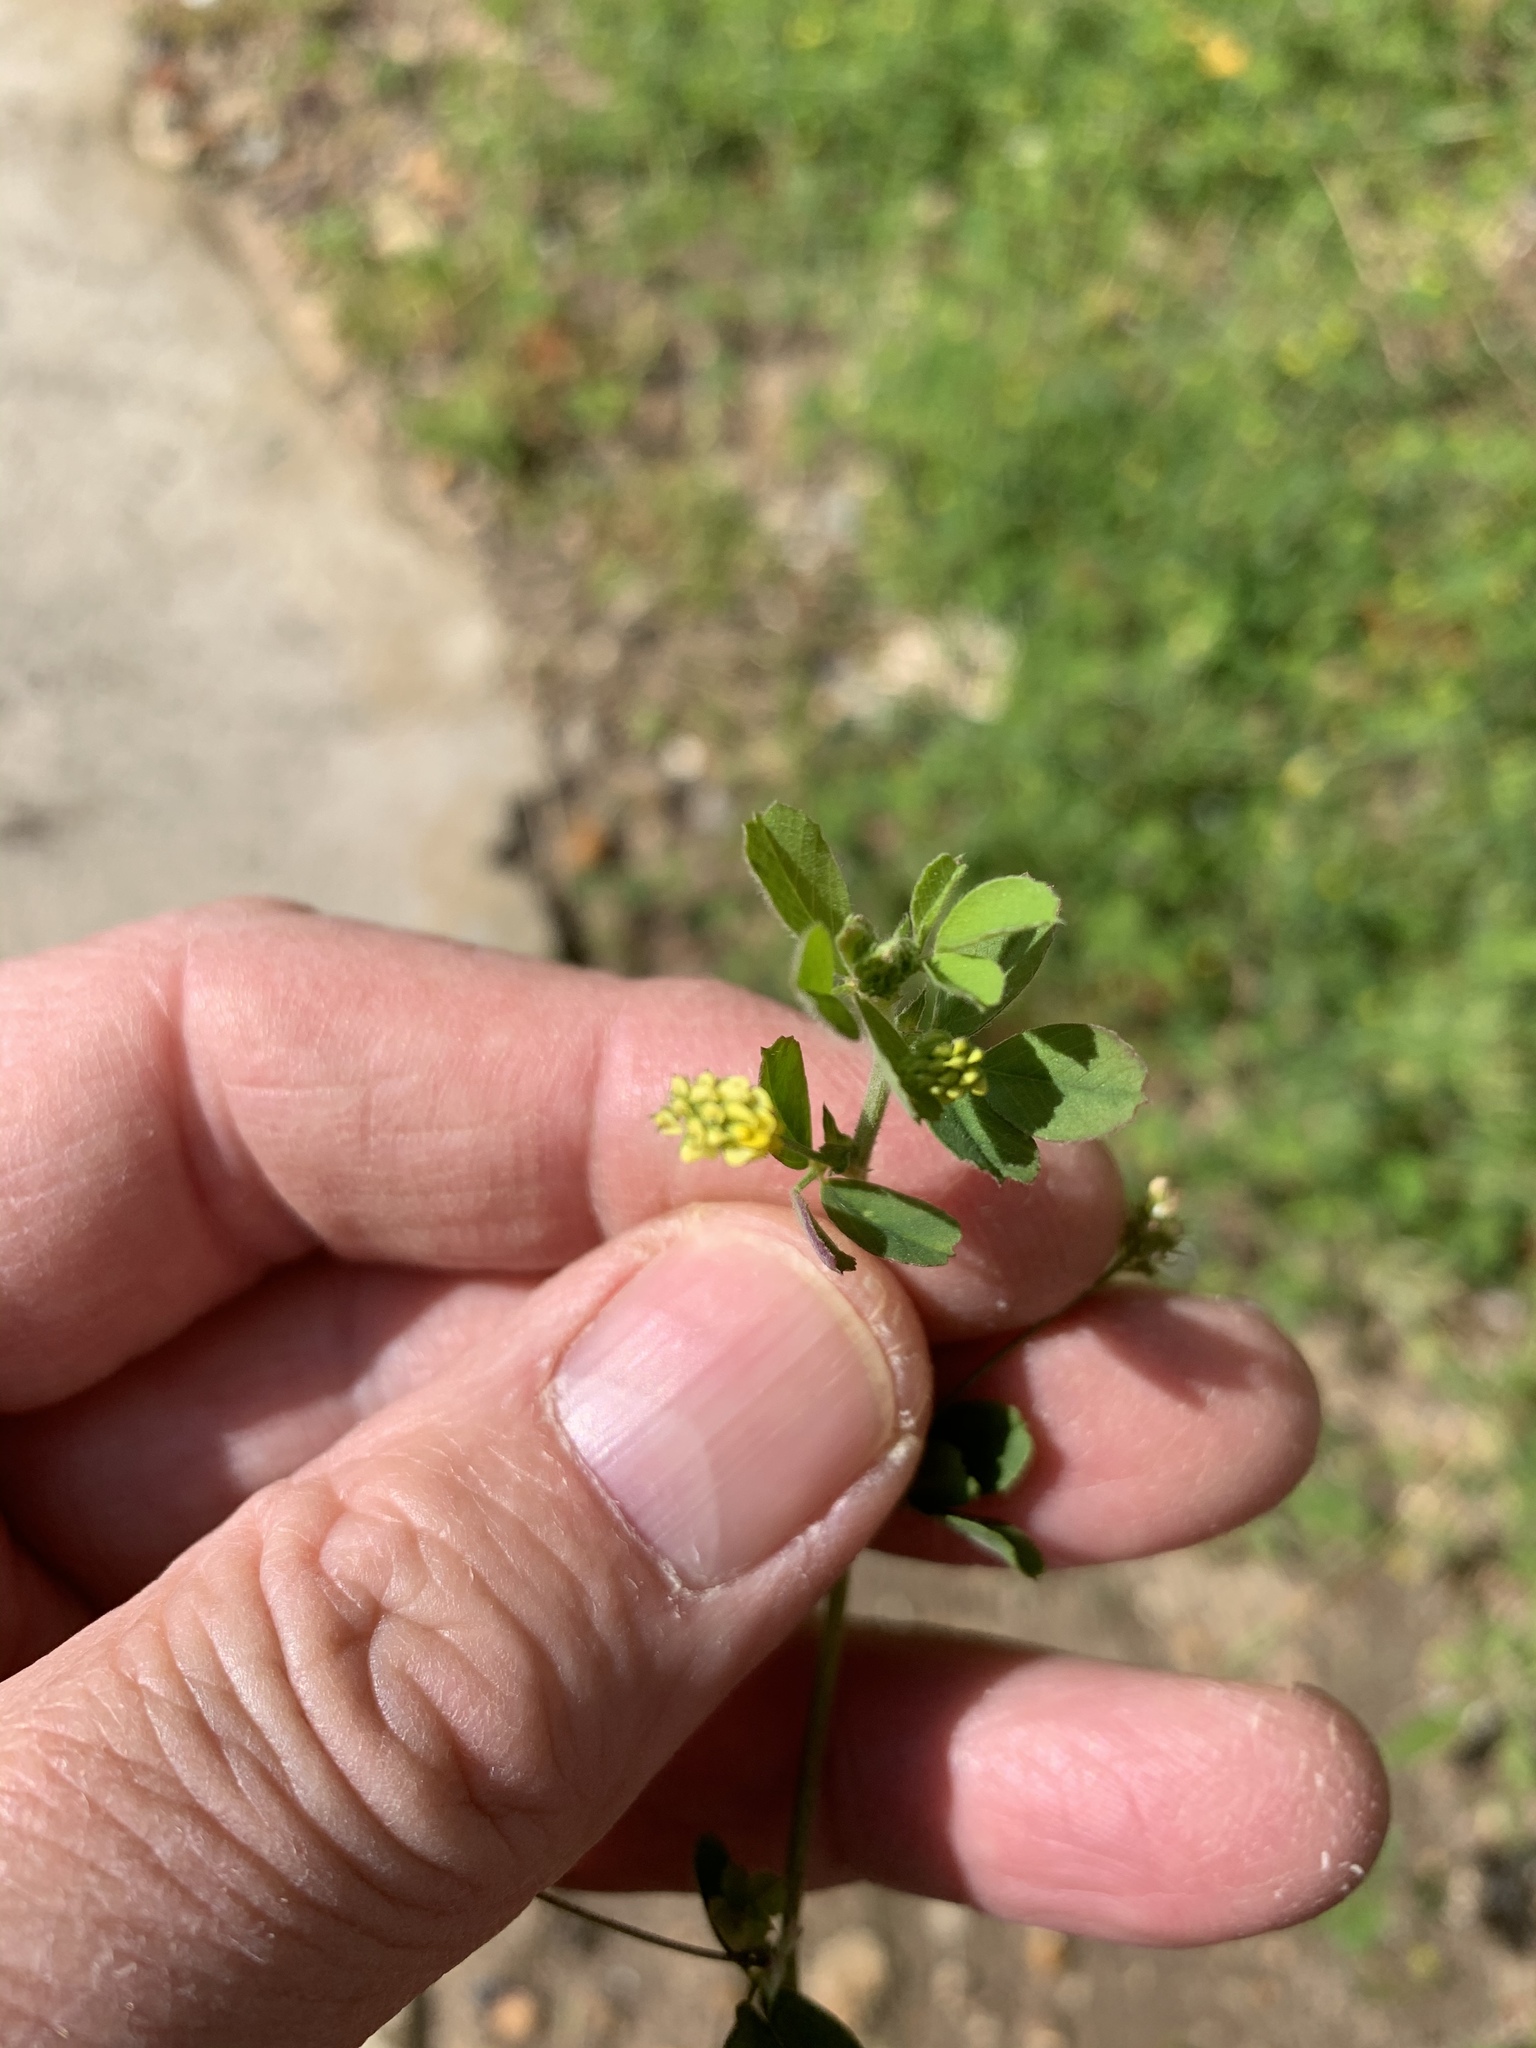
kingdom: Plantae
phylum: Tracheophyta
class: Magnoliopsida
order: Fabales
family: Fabaceae
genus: Medicago
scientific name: Medicago lupulina
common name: Black medick
